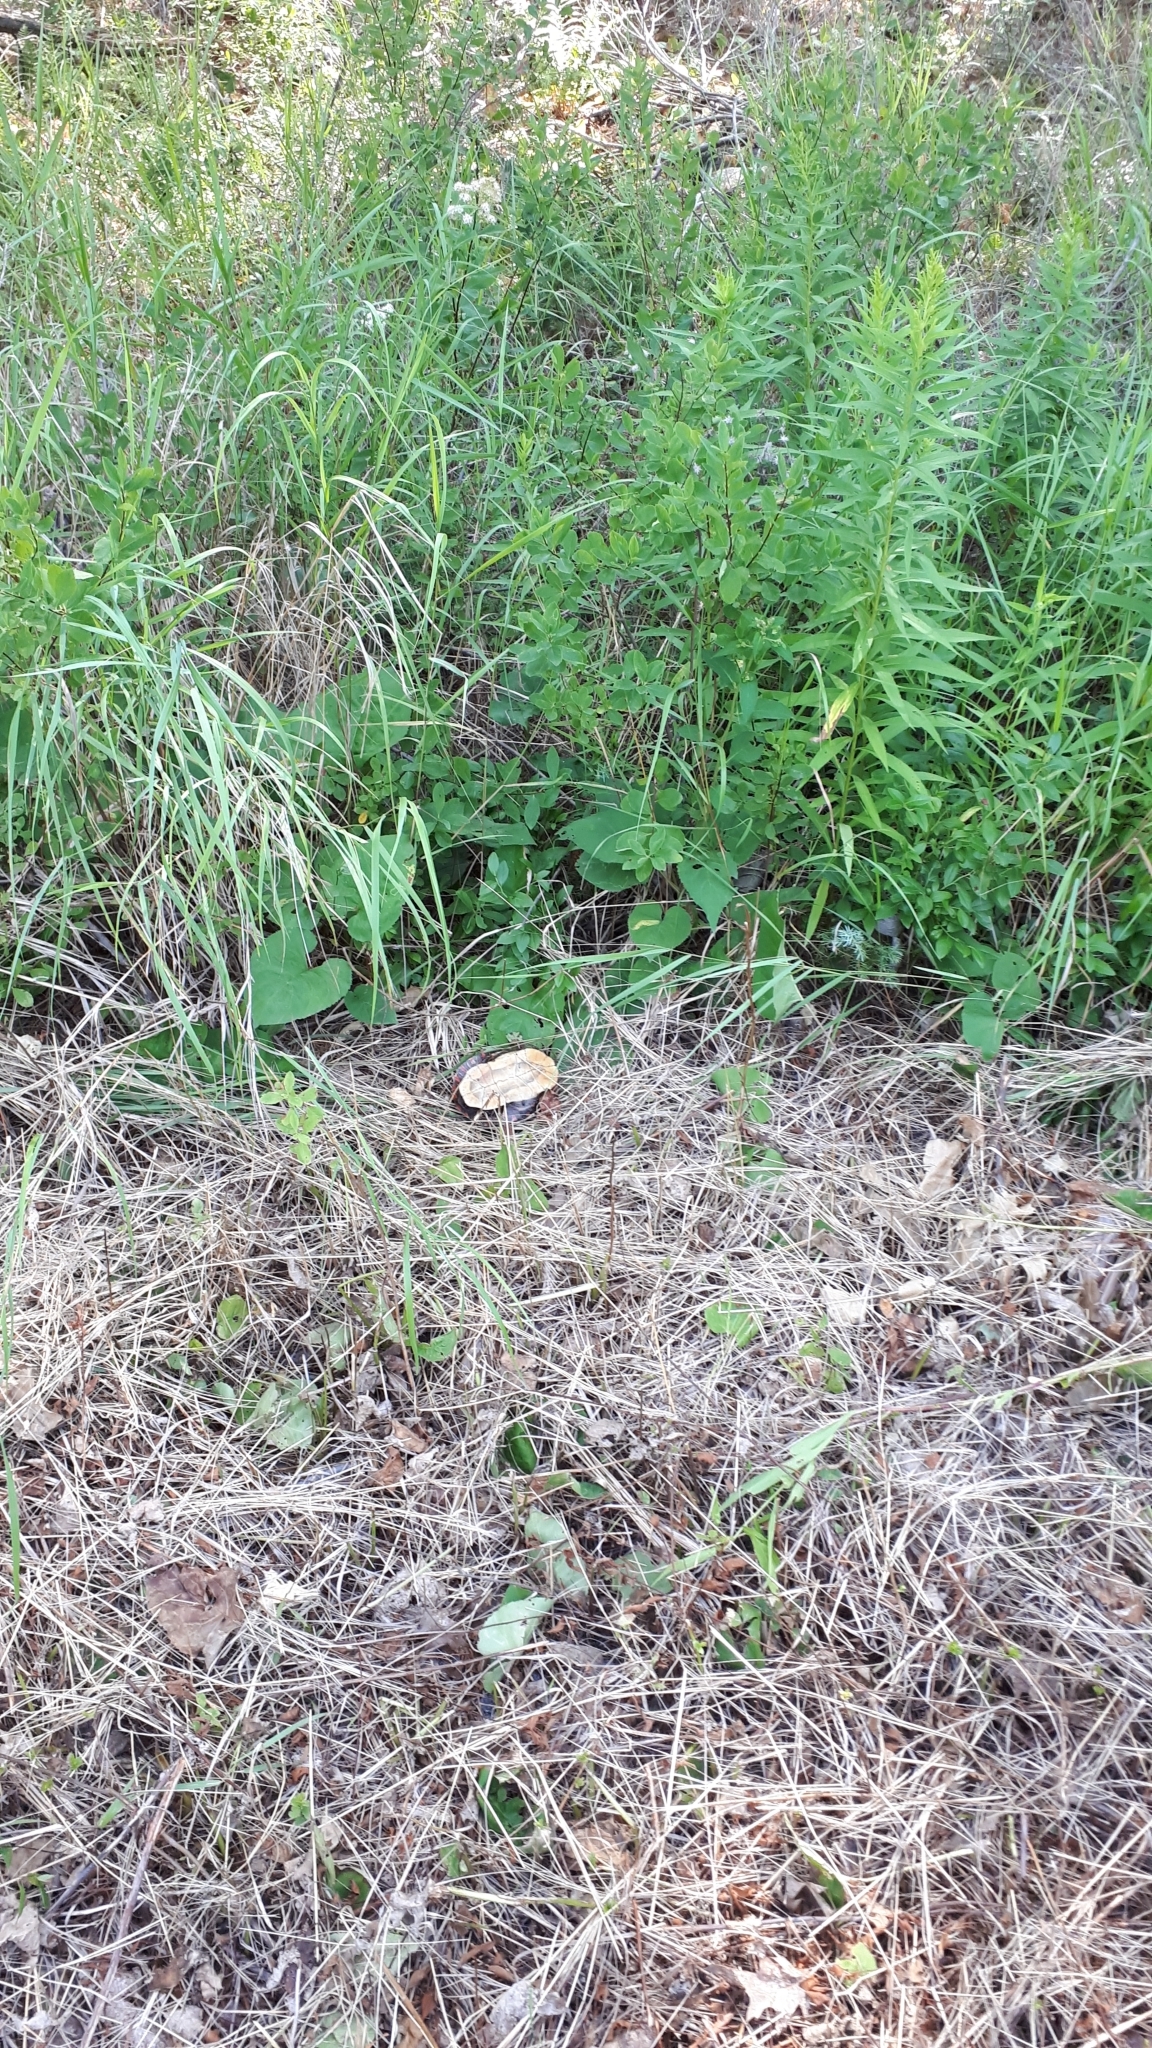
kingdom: Animalia
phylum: Chordata
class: Testudines
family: Emydidae
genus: Chrysemys
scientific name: Chrysemys picta
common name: Painted turtle
